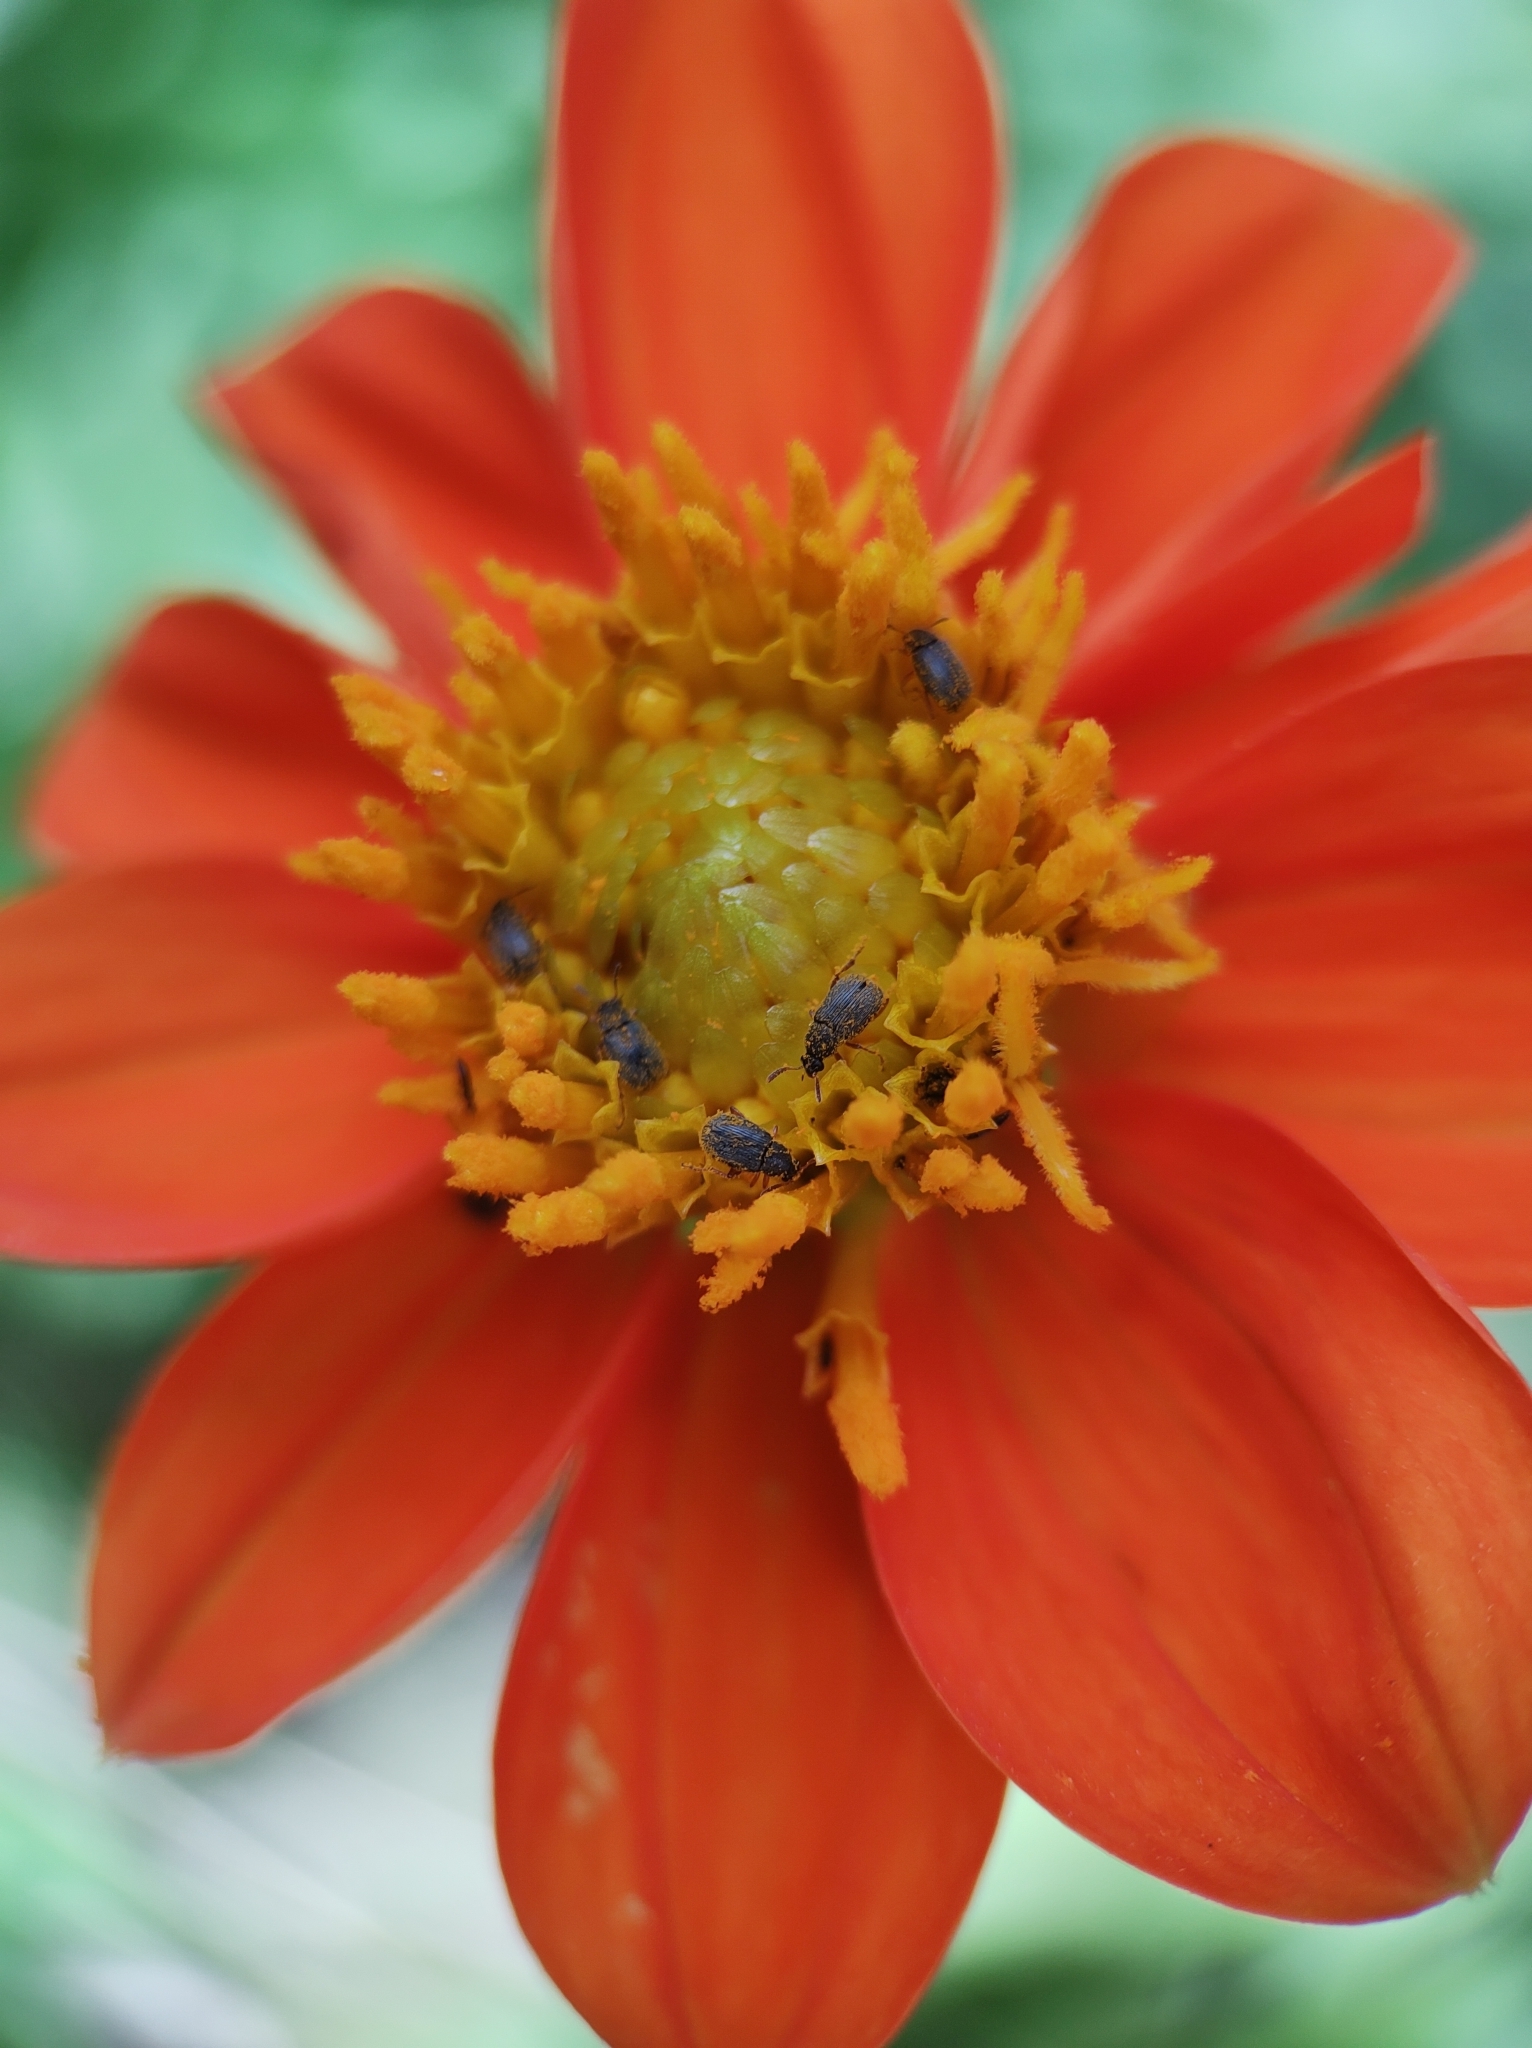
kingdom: Plantae
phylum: Tracheophyta
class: Magnoliopsida
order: Asterales
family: Asteraceae
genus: Dahlia
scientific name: Dahlia coccinea
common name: Red dahlia
